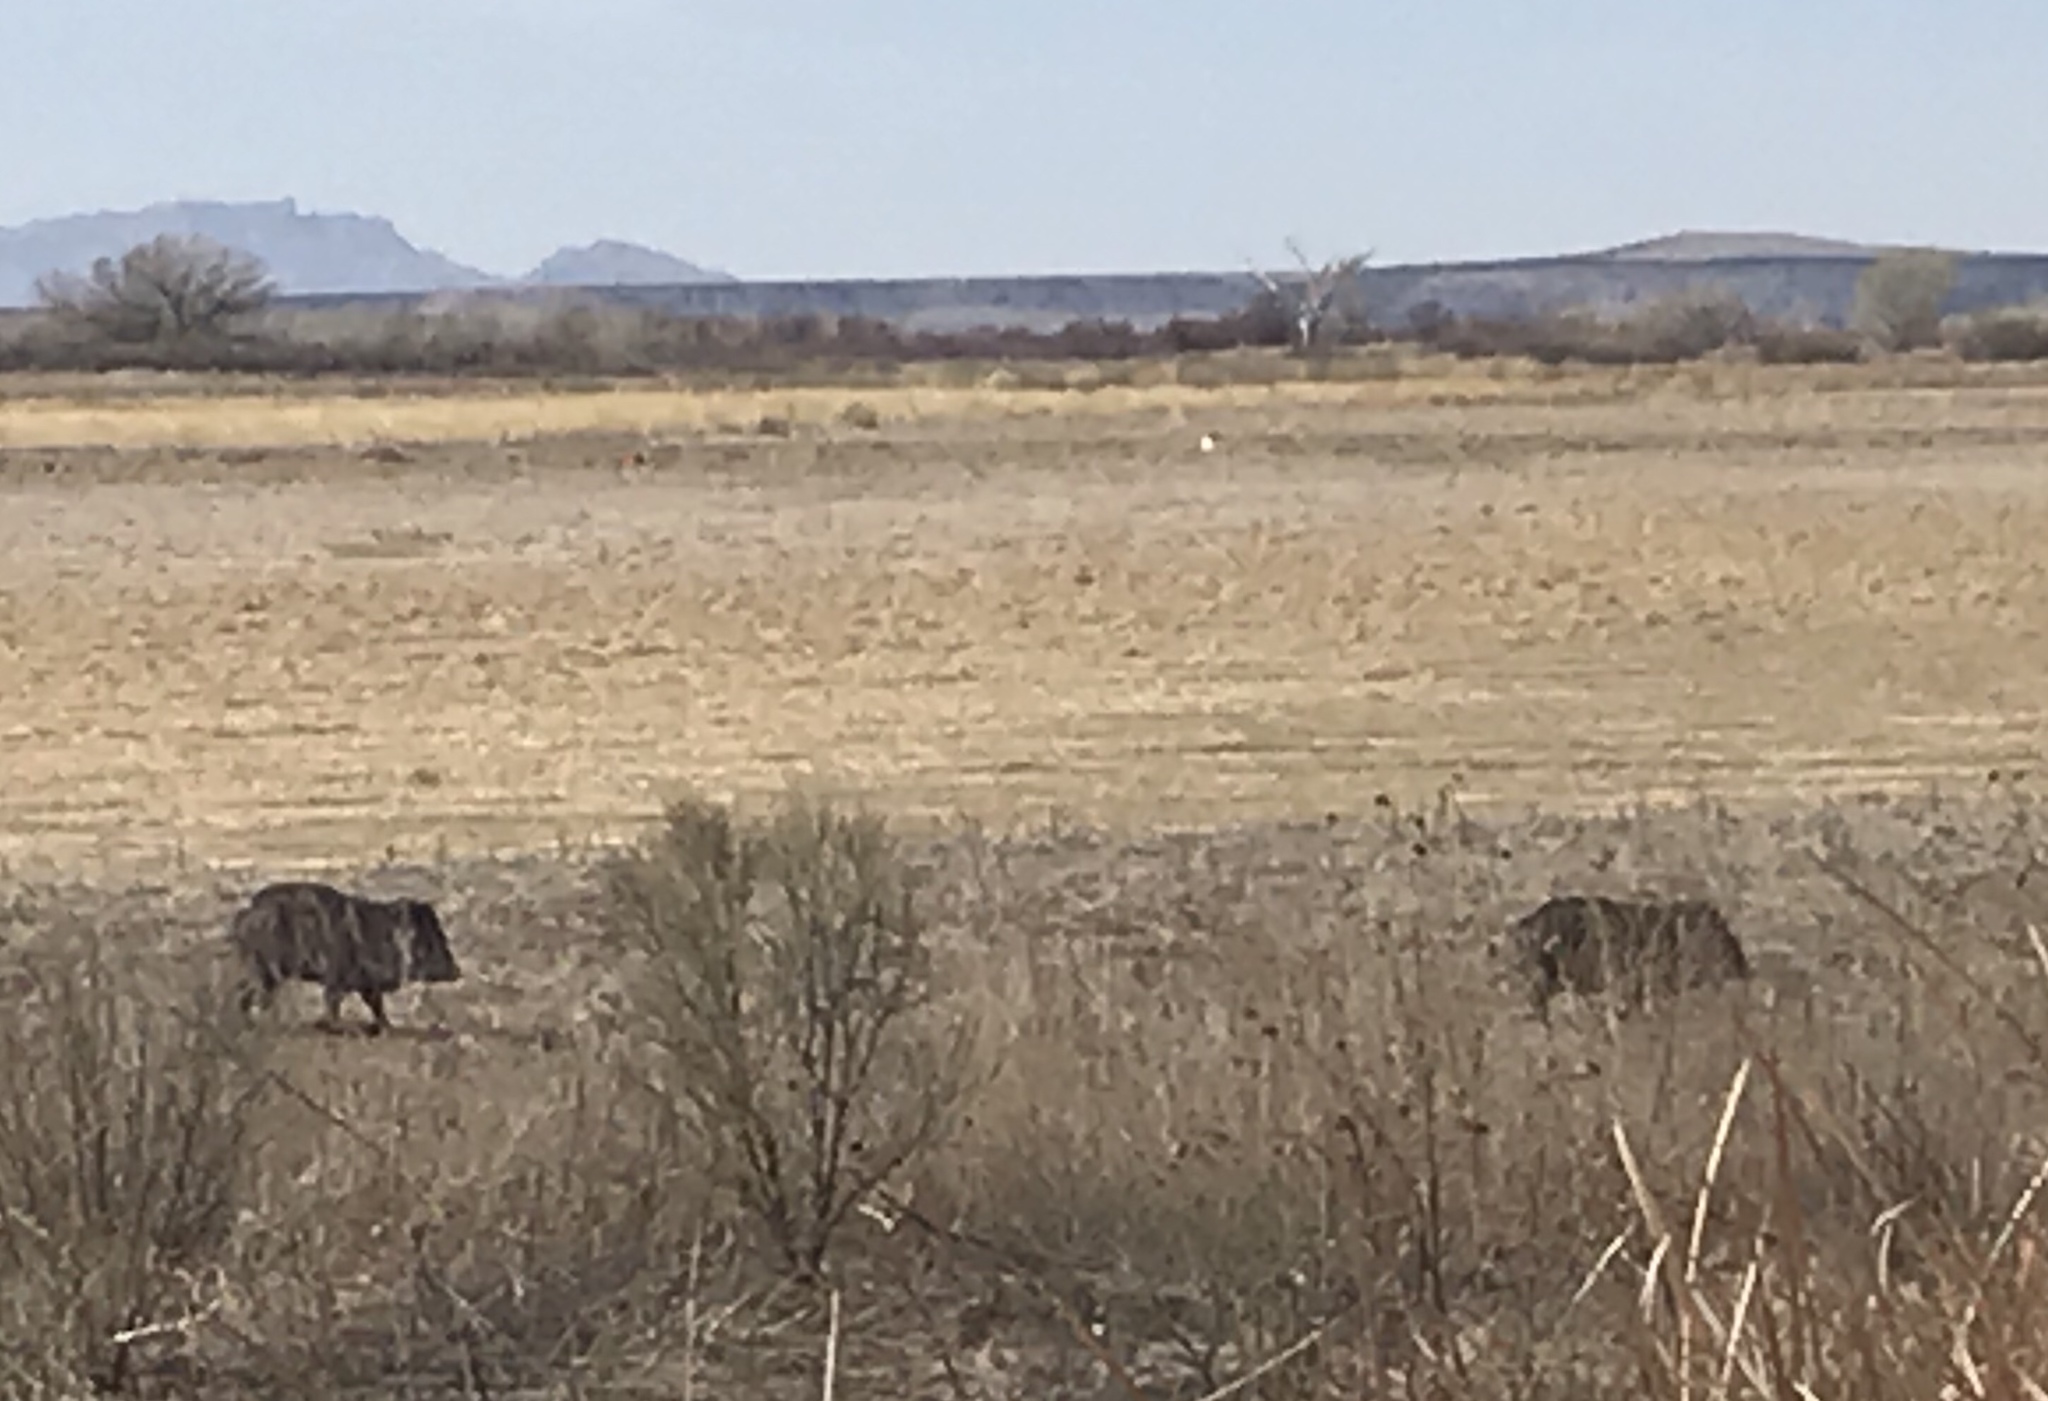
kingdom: Animalia
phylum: Chordata
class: Mammalia
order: Artiodactyla
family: Tayassuidae
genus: Pecari
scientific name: Pecari tajacu
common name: Collared peccary
